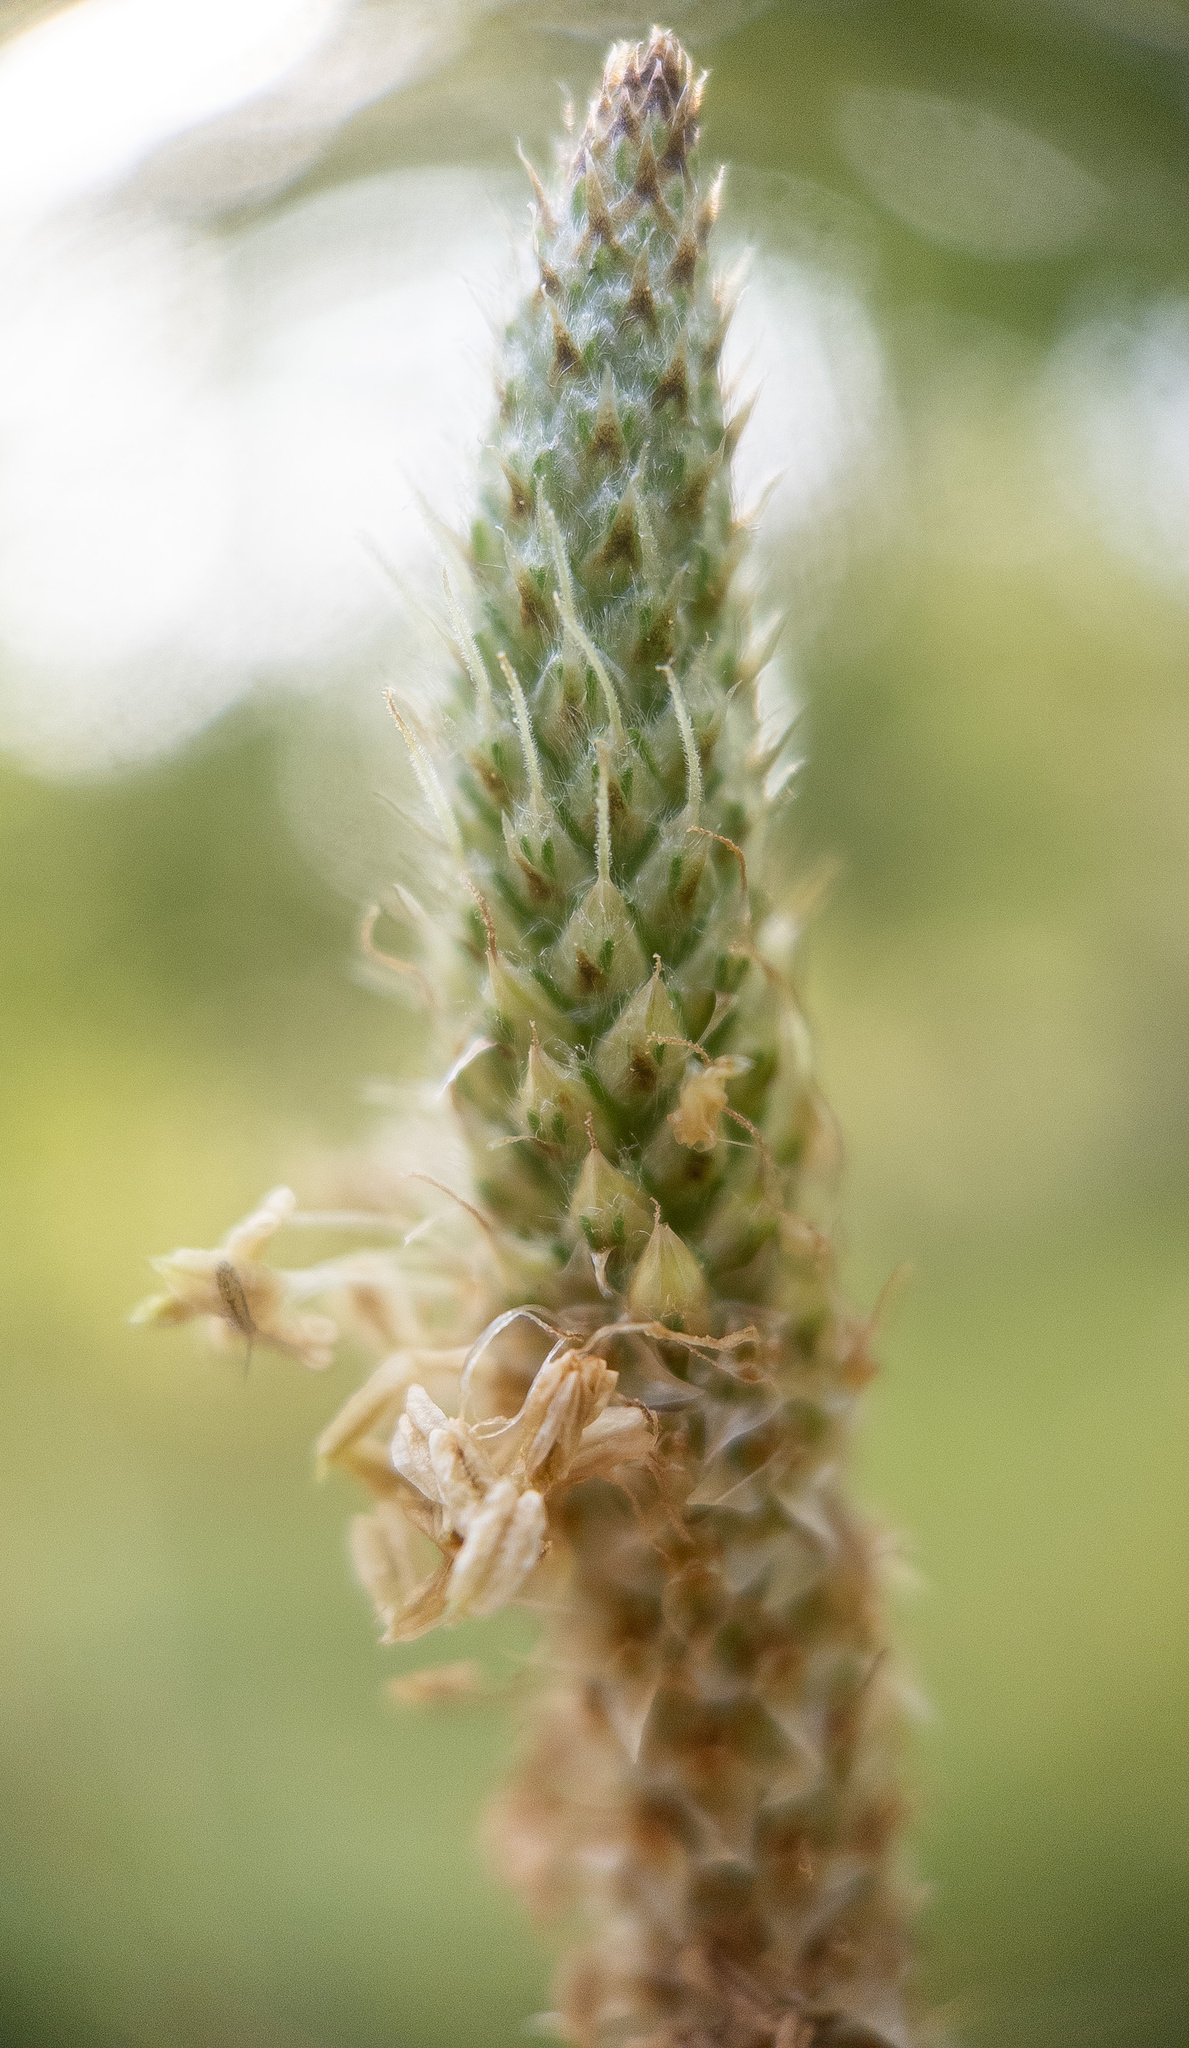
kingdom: Plantae
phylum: Tracheophyta
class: Magnoliopsida
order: Lamiales
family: Plantaginaceae
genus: Plantago
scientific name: Plantago lanceolata
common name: Ribwort plantain
